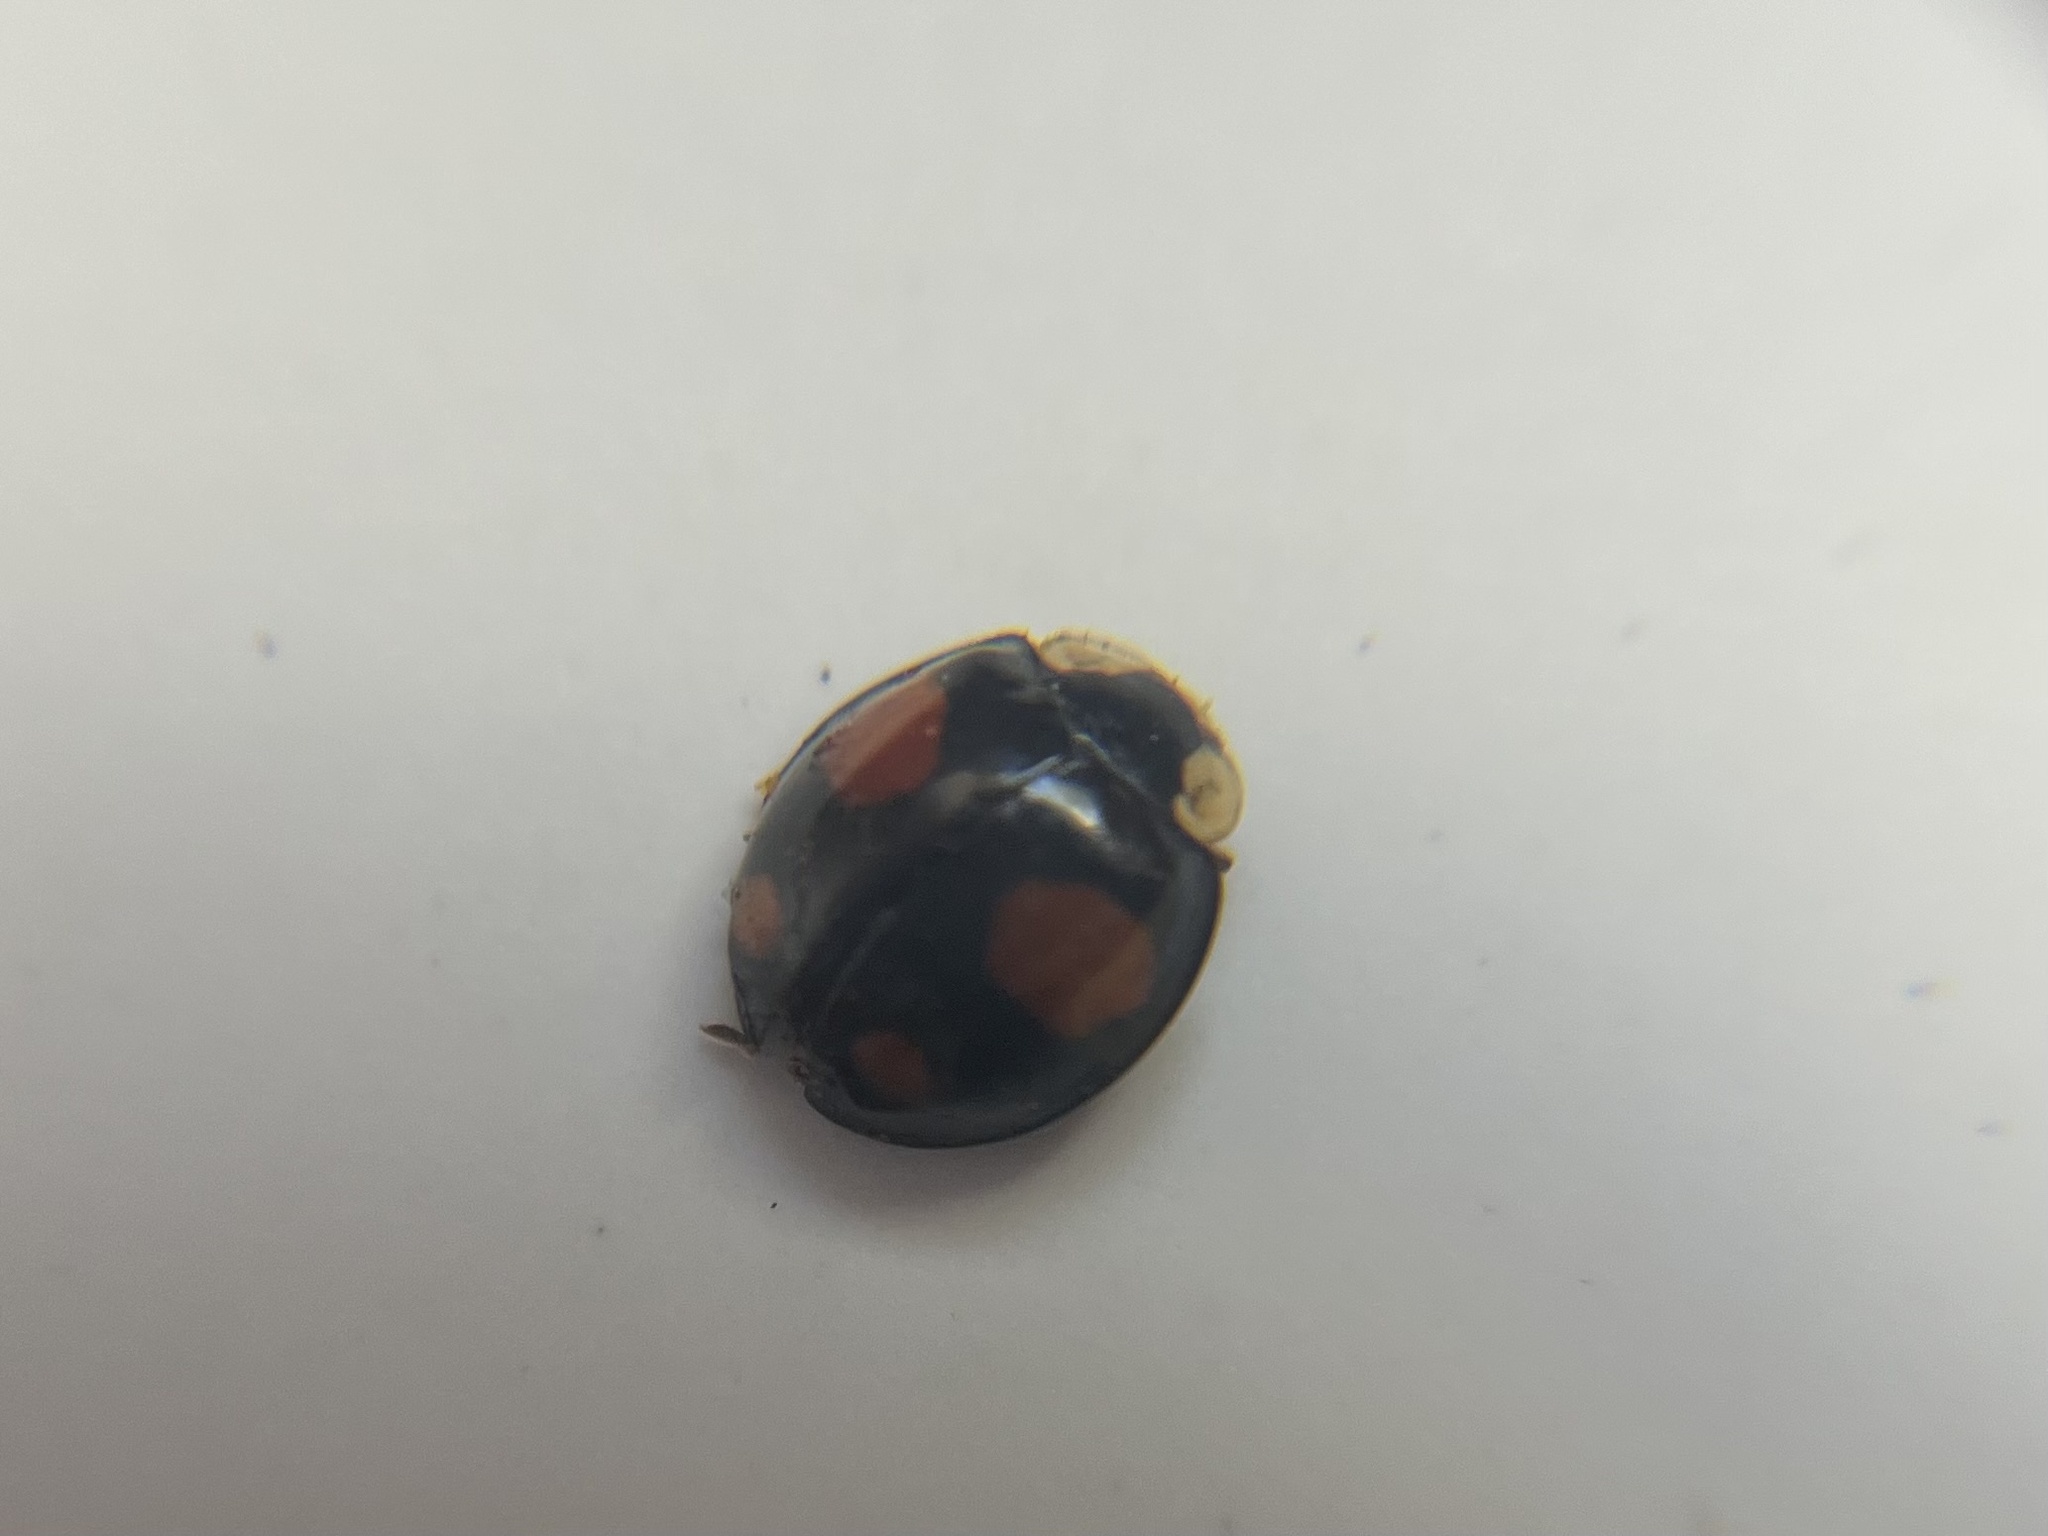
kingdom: Animalia
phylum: Arthropoda
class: Insecta
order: Coleoptera
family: Coccinellidae
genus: Harmonia
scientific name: Harmonia axyridis
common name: Harlequin ladybird
